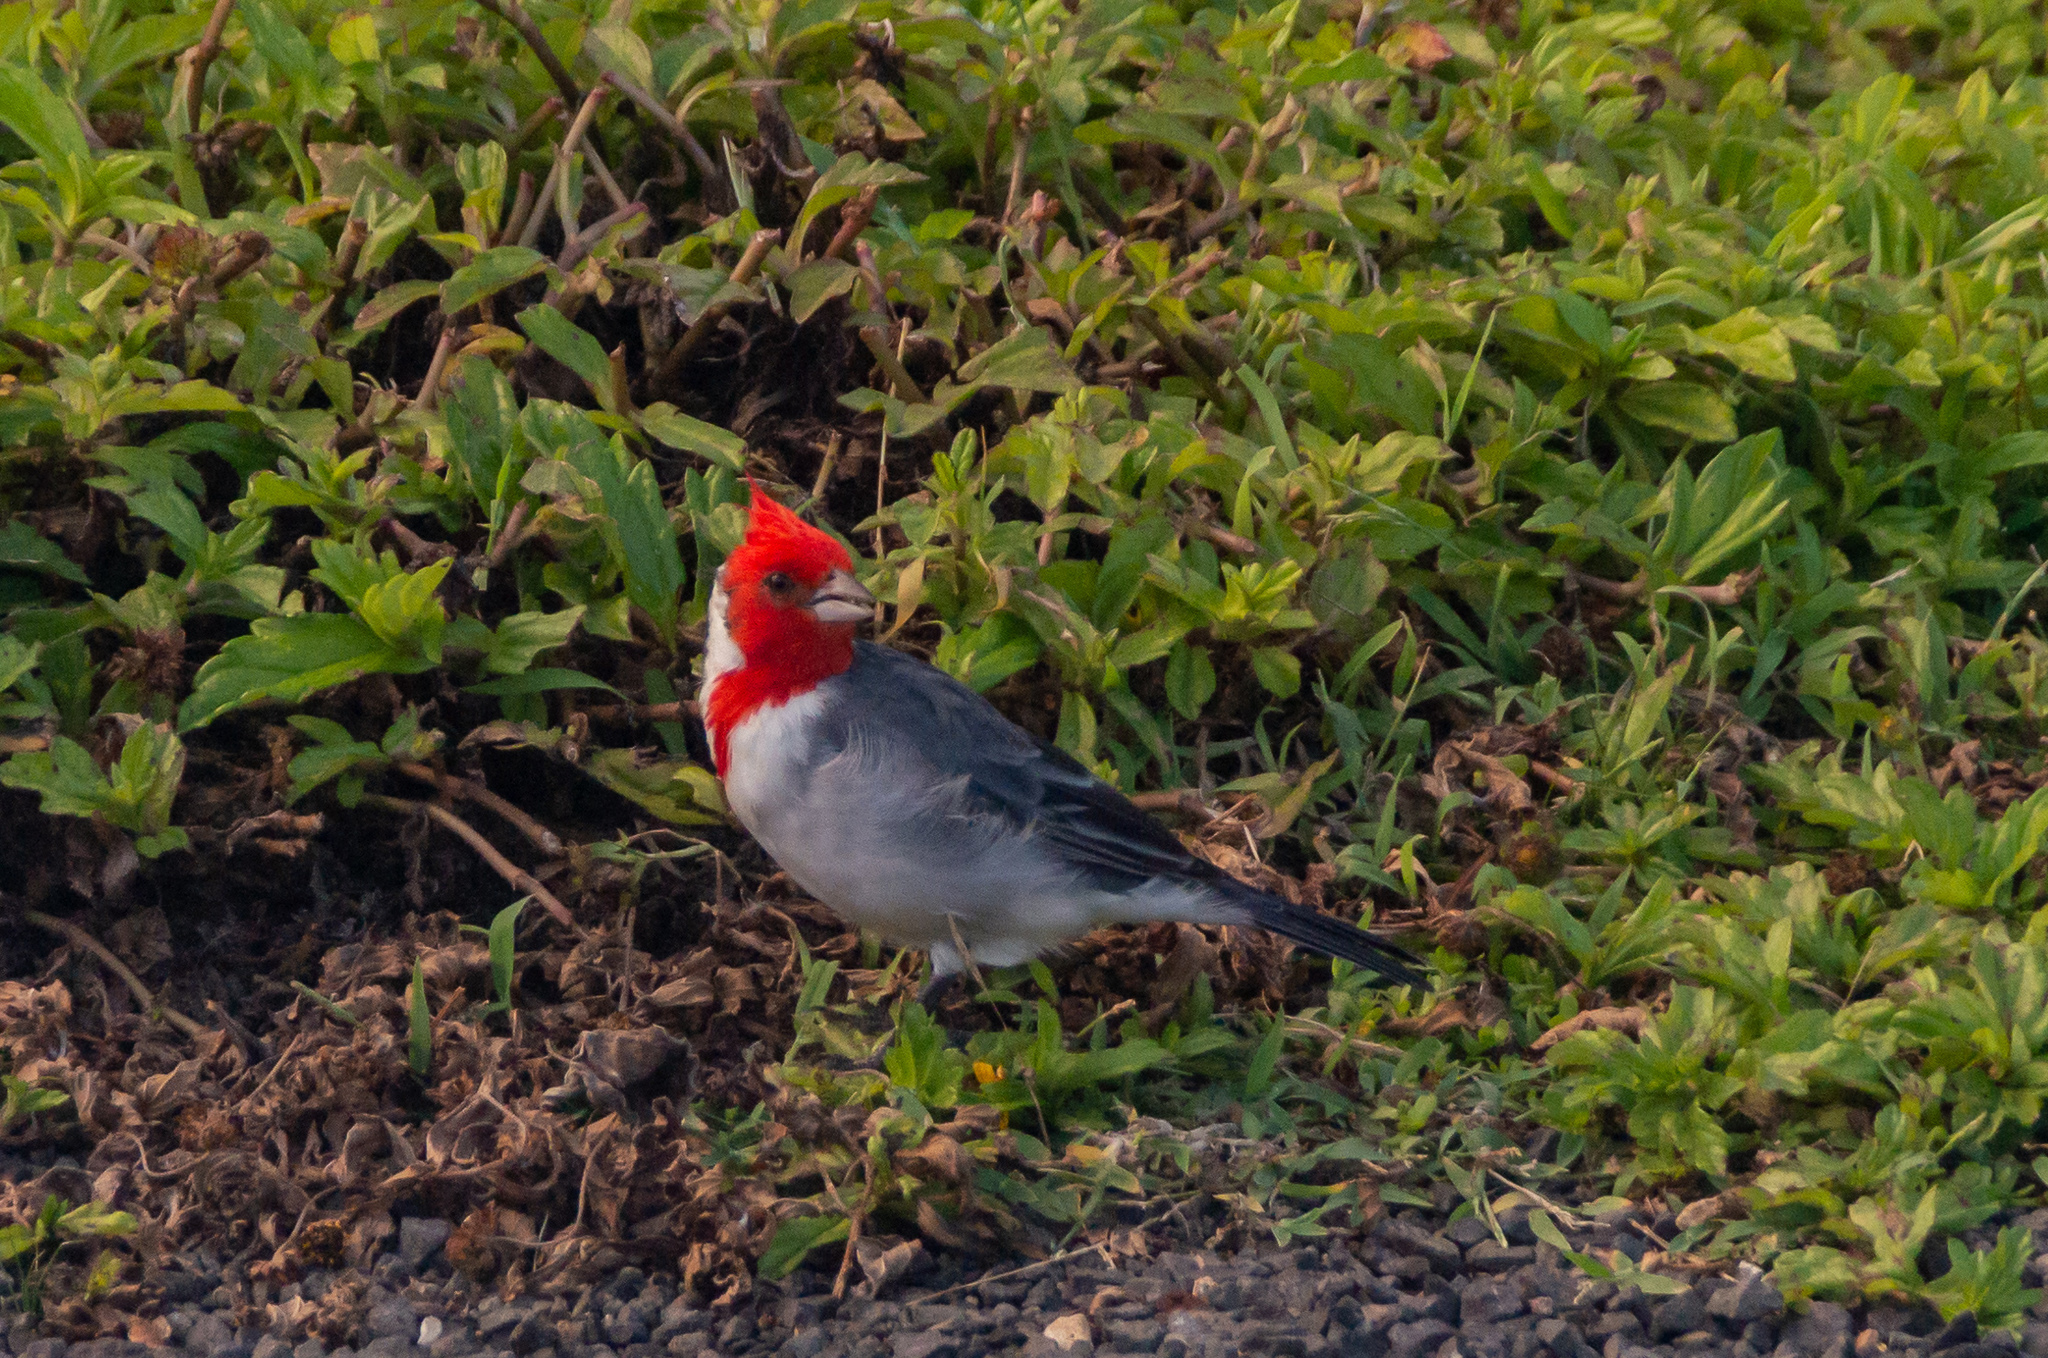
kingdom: Animalia
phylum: Chordata
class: Aves
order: Passeriformes
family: Thraupidae
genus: Paroaria
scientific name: Paroaria coronata
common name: Red-crested cardinal
